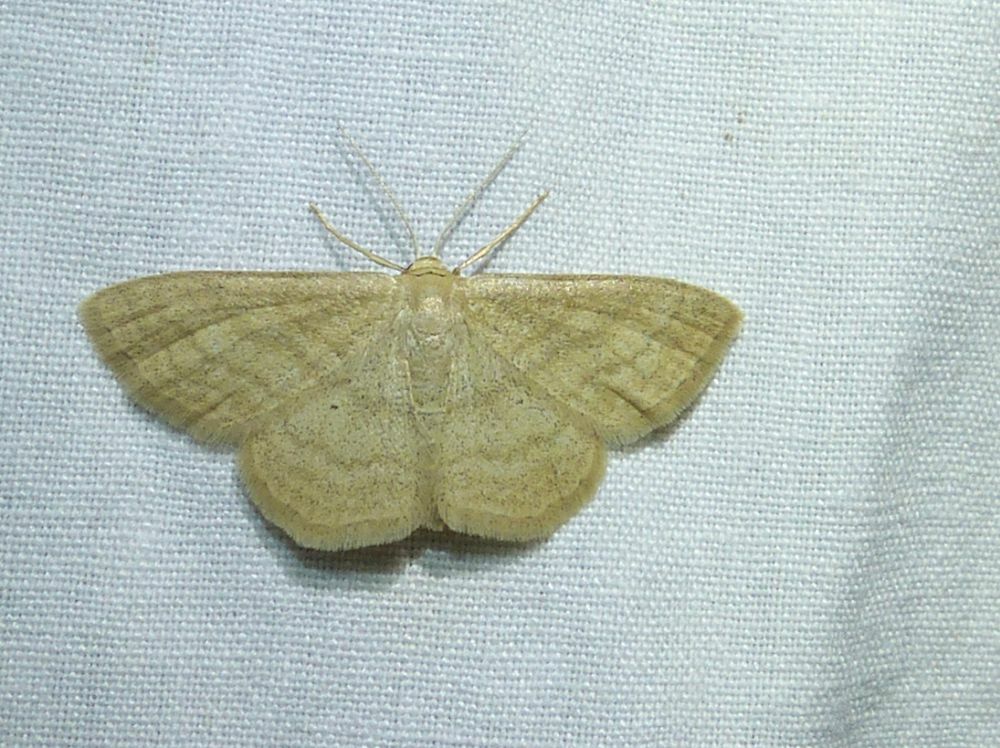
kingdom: Animalia
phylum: Arthropoda
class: Insecta
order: Lepidoptera
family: Geometridae
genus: Scopula
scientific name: Scopula inductata
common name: Soft-lined wave
